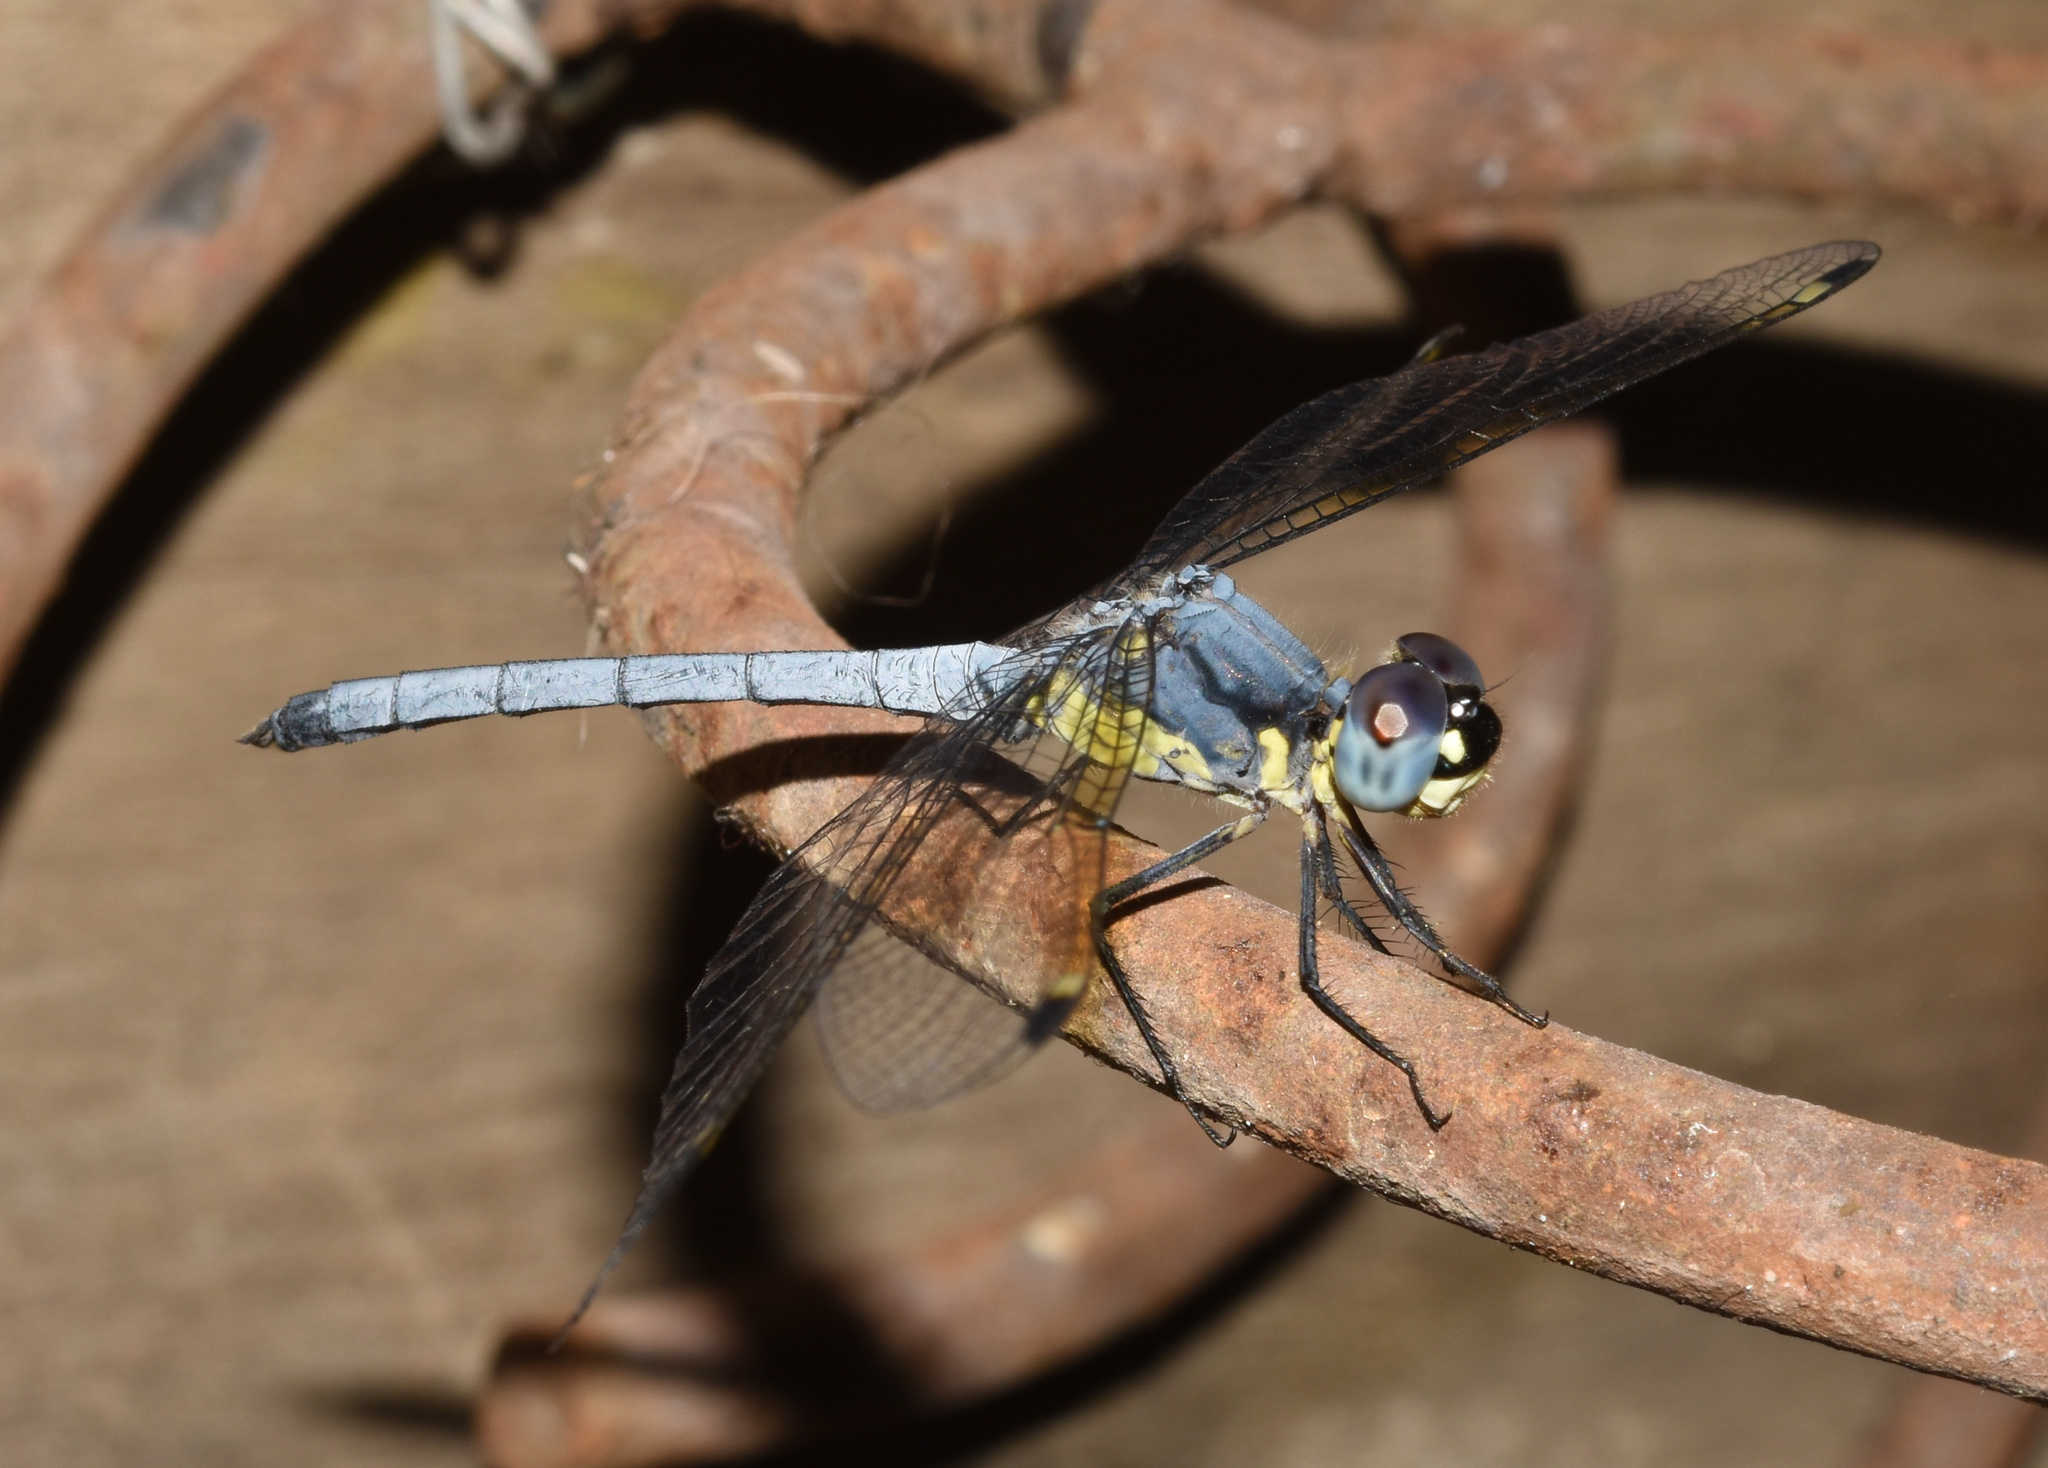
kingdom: Animalia
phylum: Arthropoda
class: Insecta
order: Odonata
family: Libellulidae
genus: Hemistigma
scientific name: Hemistigma albipunctum
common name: African pied-spot
